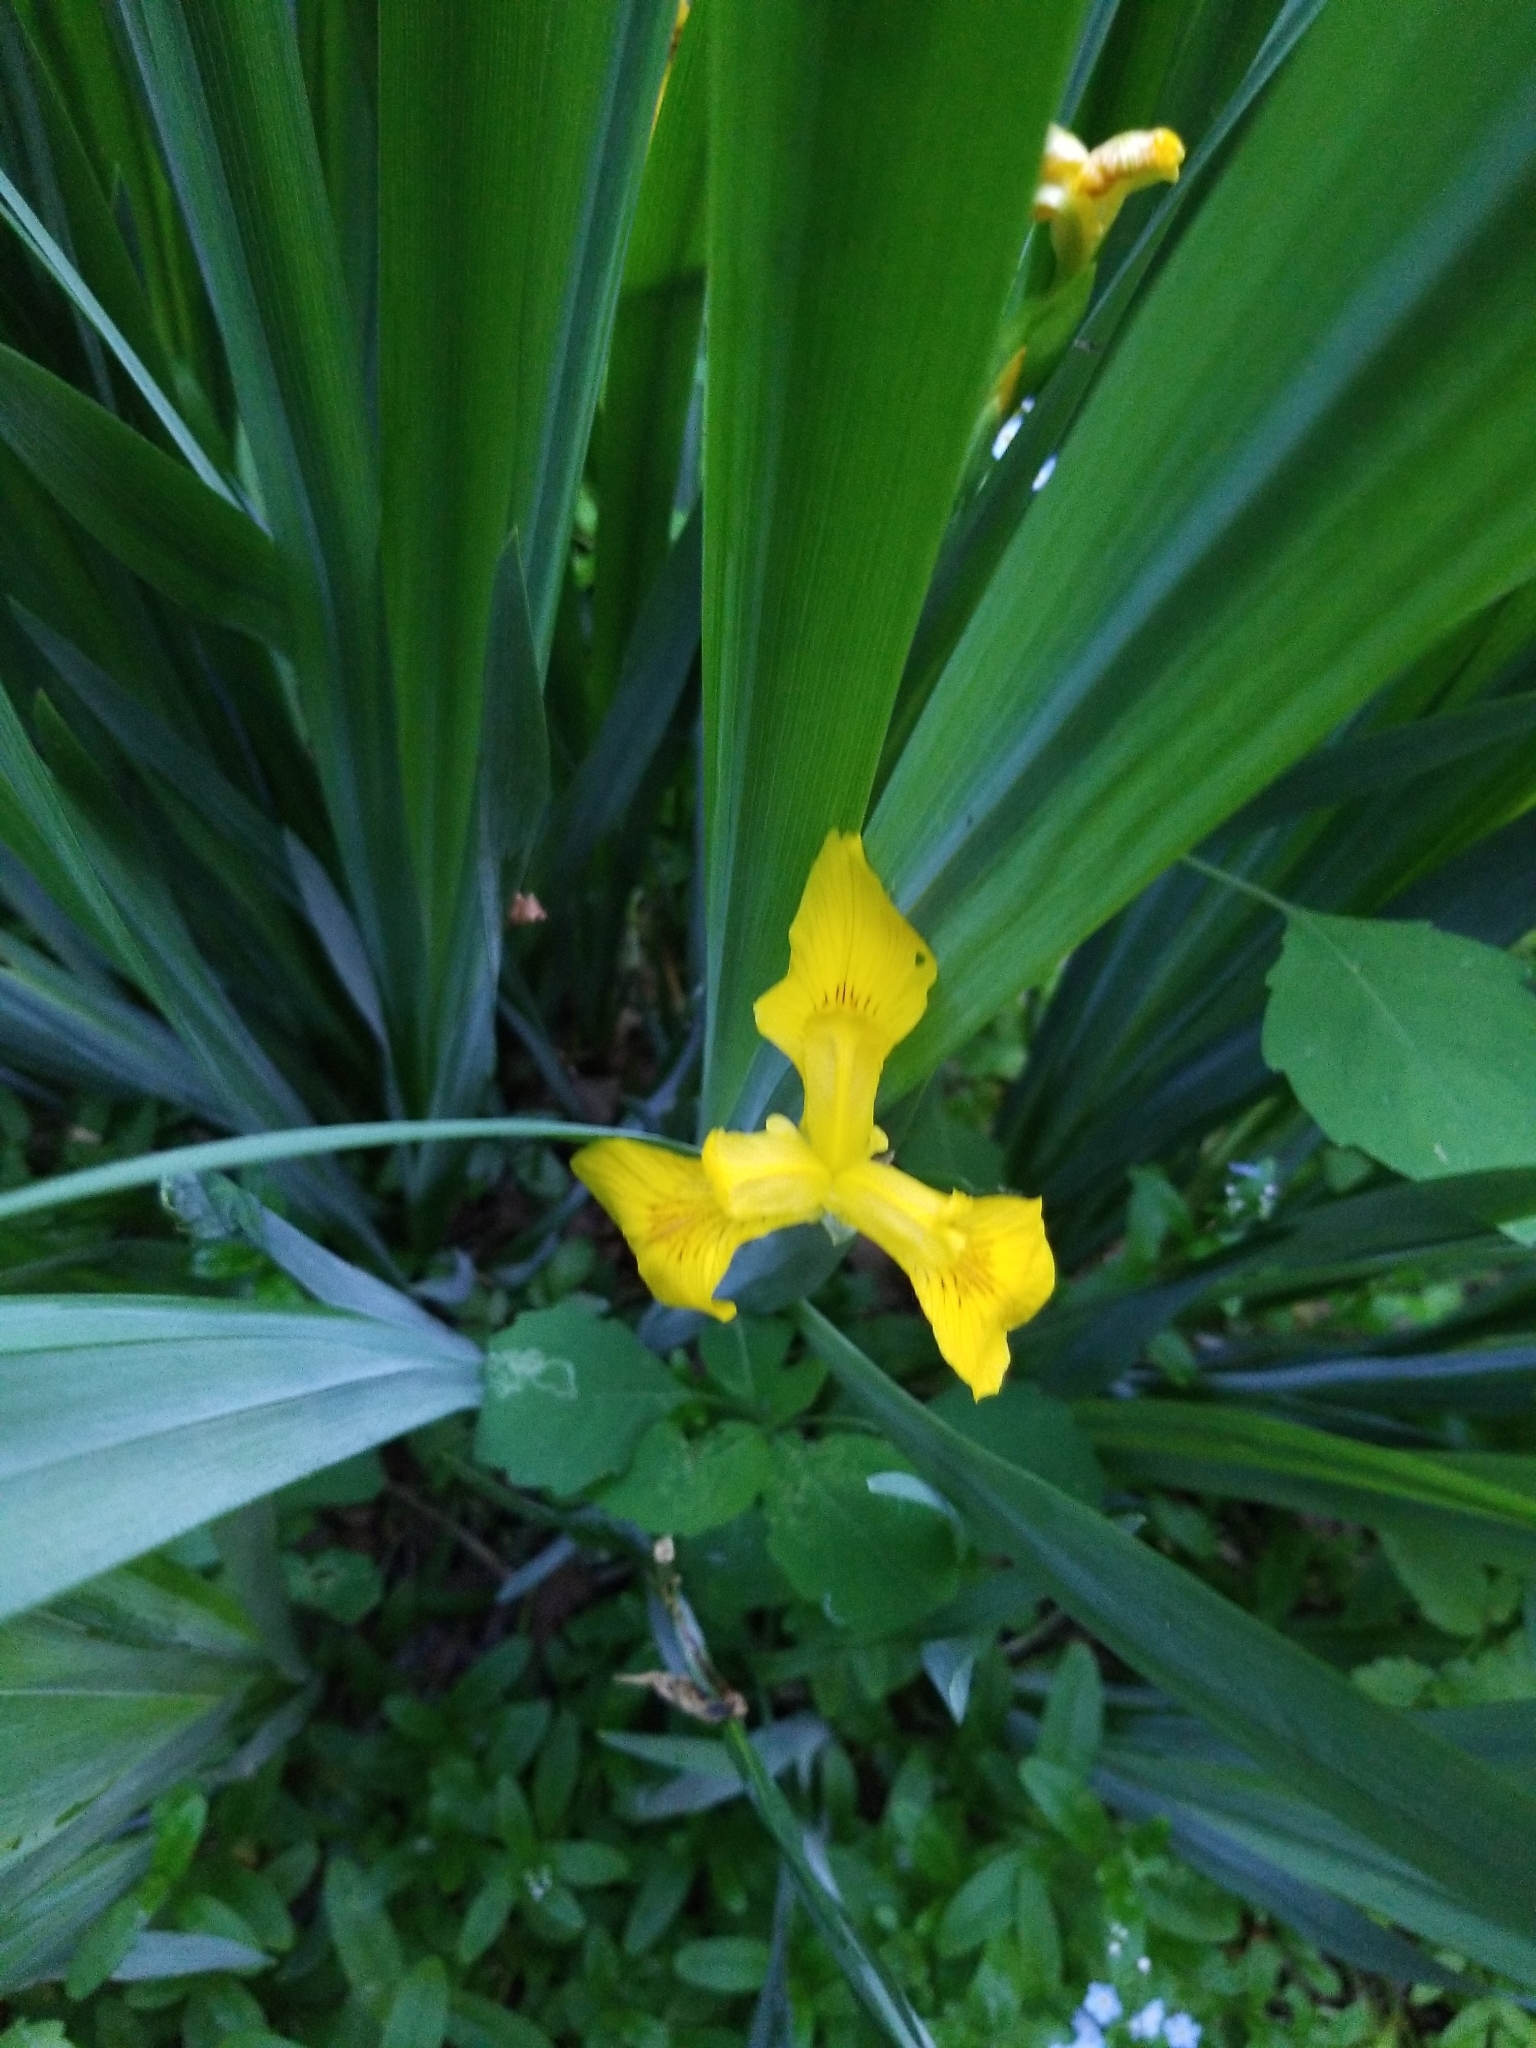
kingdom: Plantae
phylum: Tracheophyta
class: Liliopsida
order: Asparagales
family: Iridaceae
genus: Iris
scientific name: Iris pseudacorus
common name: Yellow flag
